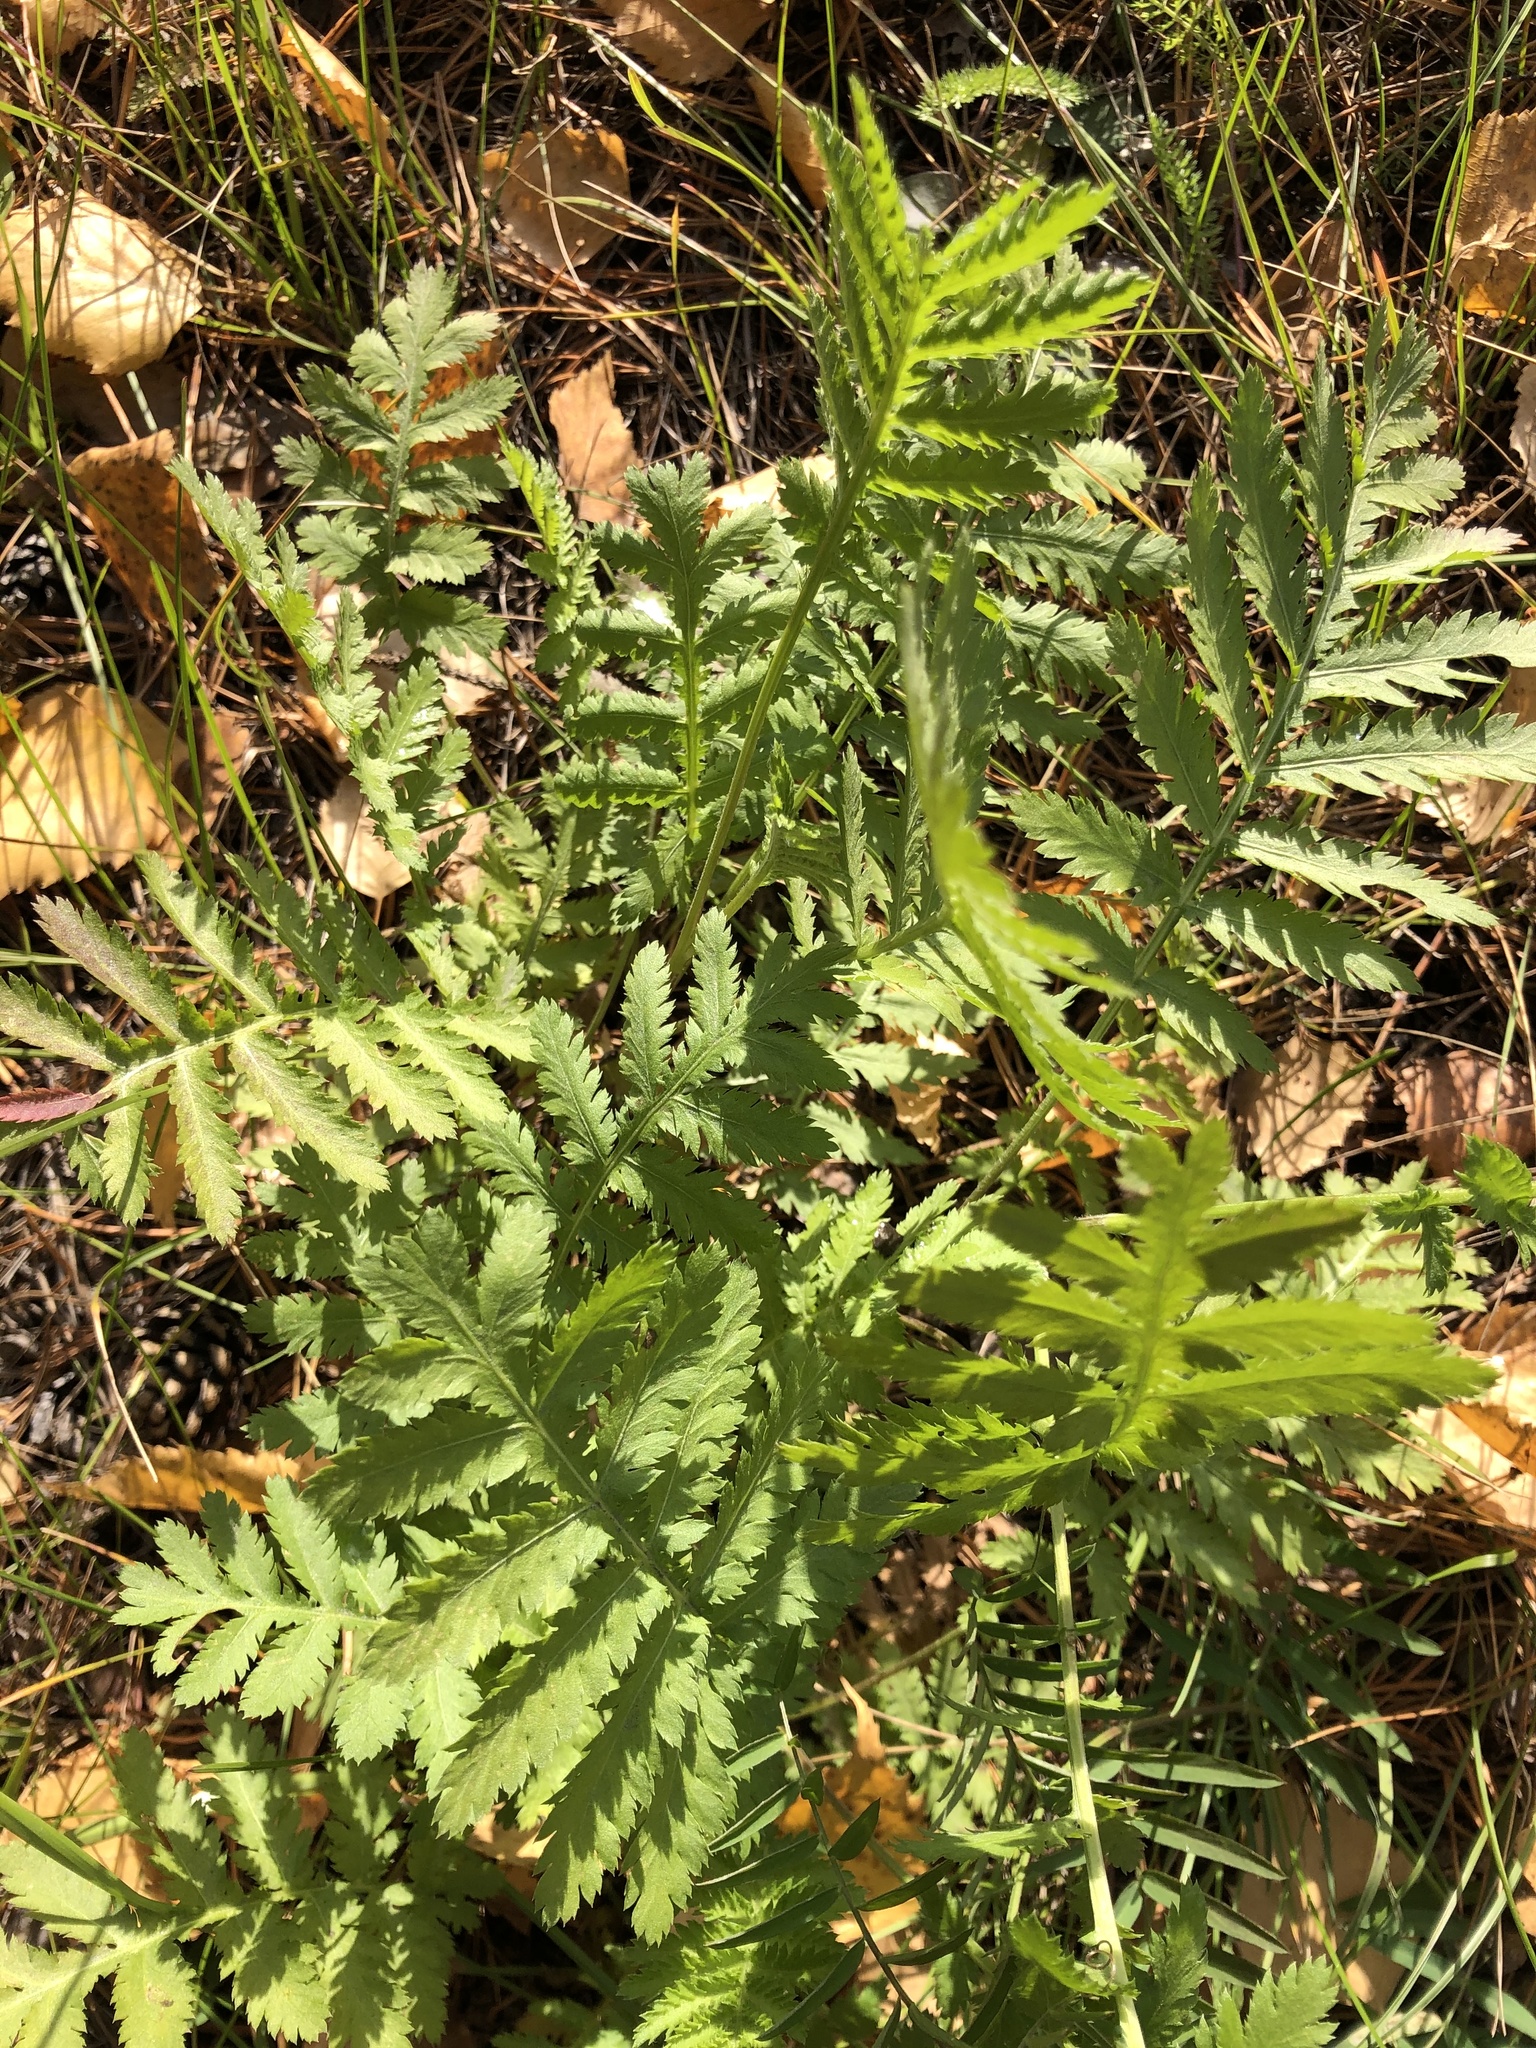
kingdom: Plantae
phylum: Tracheophyta
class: Magnoliopsida
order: Asterales
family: Asteraceae
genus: Tanacetum
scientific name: Tanacetum vulgare
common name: Common tansy
